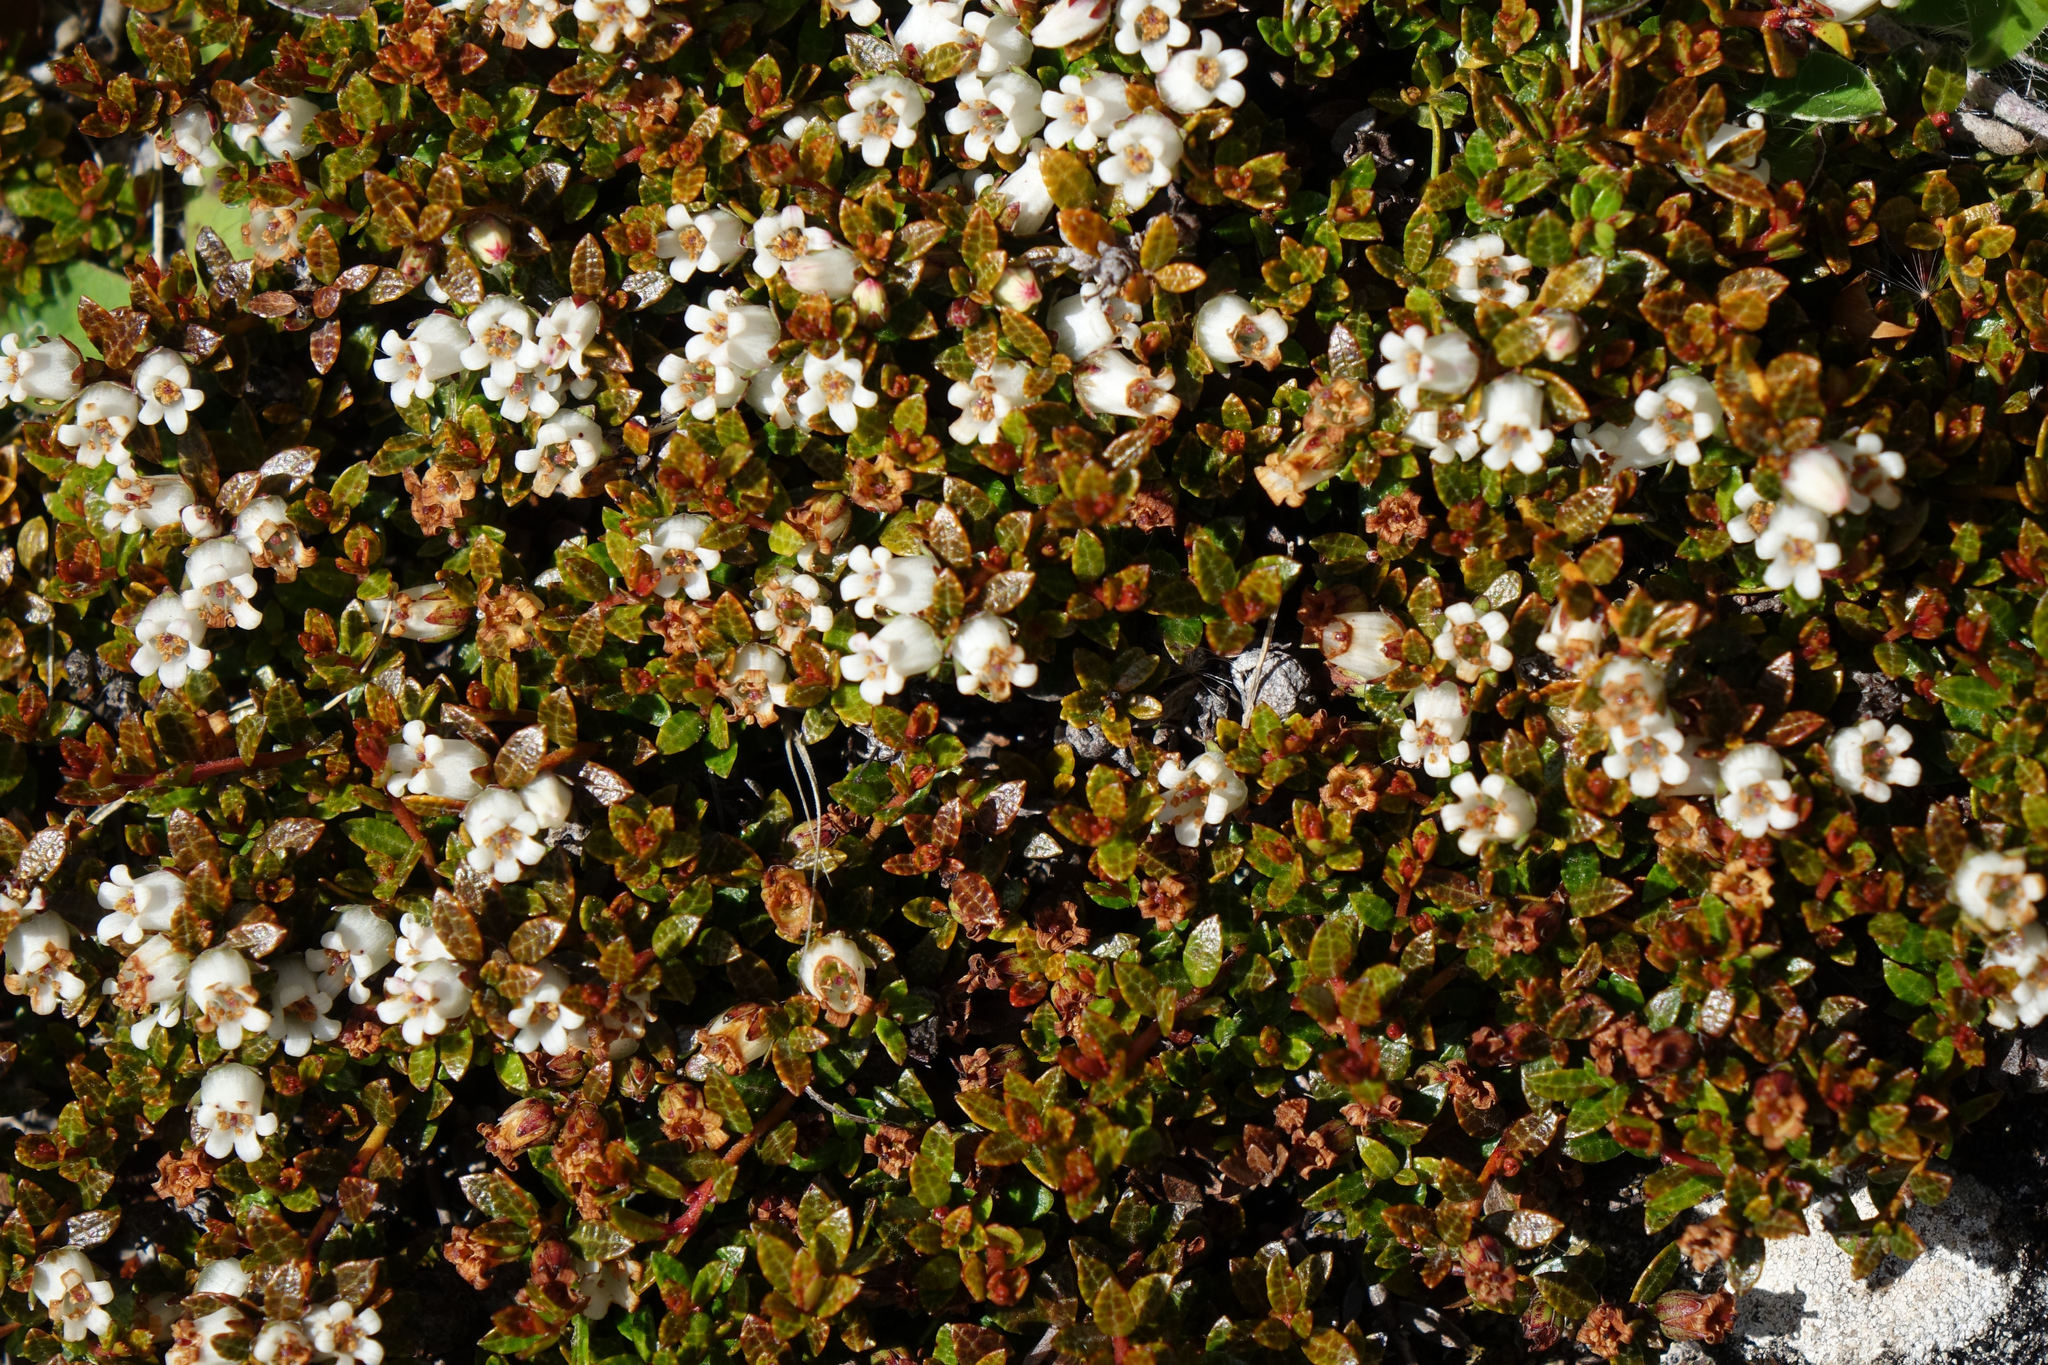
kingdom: Plantae
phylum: Tracheophyta
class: Magnoliopsida
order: Ericales
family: Ericaceae
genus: Gaultheria
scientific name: Gaultheria parvula
